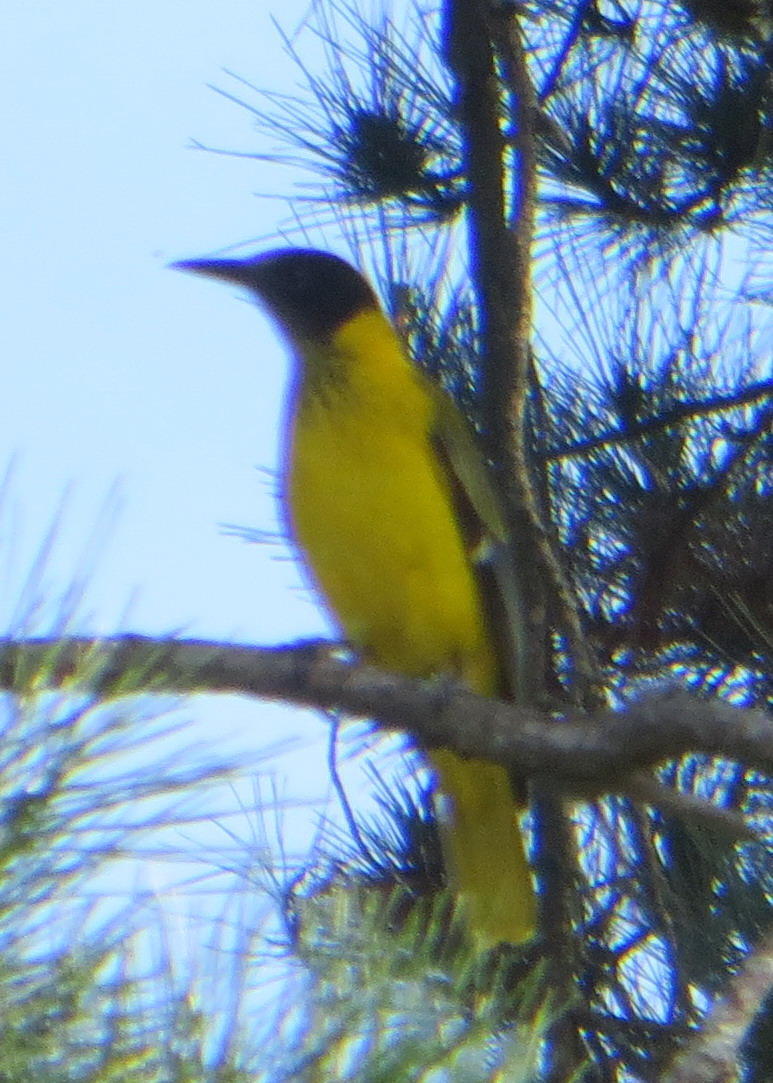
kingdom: Animalia
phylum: Chordata
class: Aves
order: Passeriformes
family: Oriolidae
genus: Oriolus
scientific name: Oriolus larvatus
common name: Black-headed oriole
